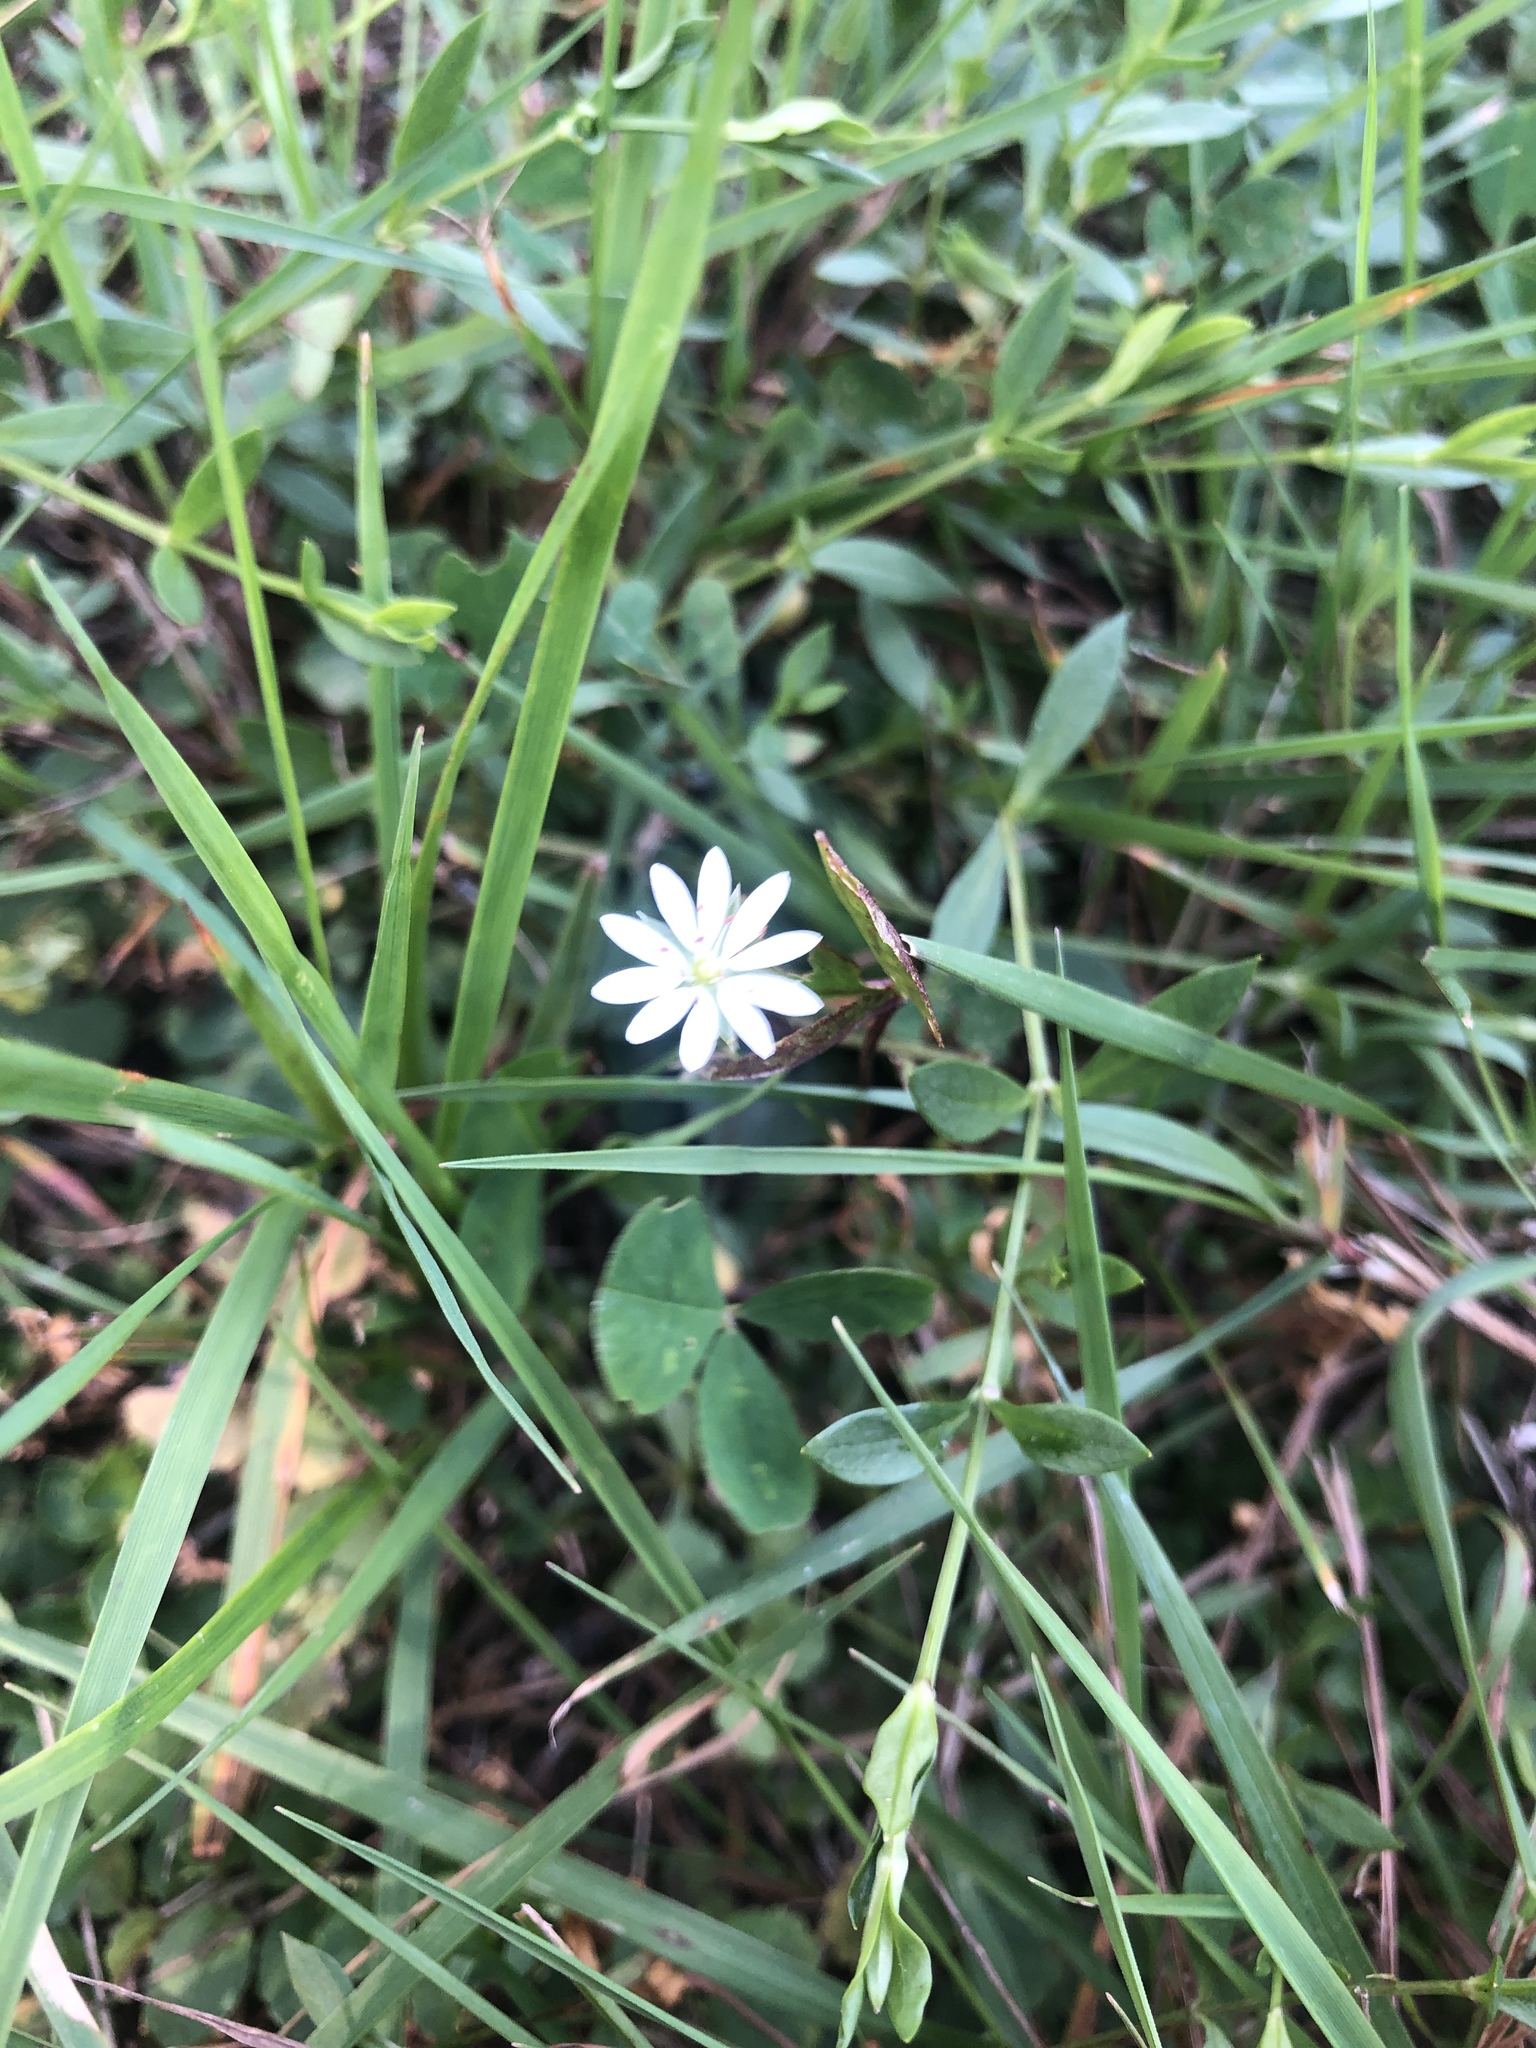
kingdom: Plantae
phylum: Tracheophyta
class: Magnoliopsida
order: Caryophyllales
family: Caryophyllaceae
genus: Stellaria
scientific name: Stellaria graminea
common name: Grass-like starwort
